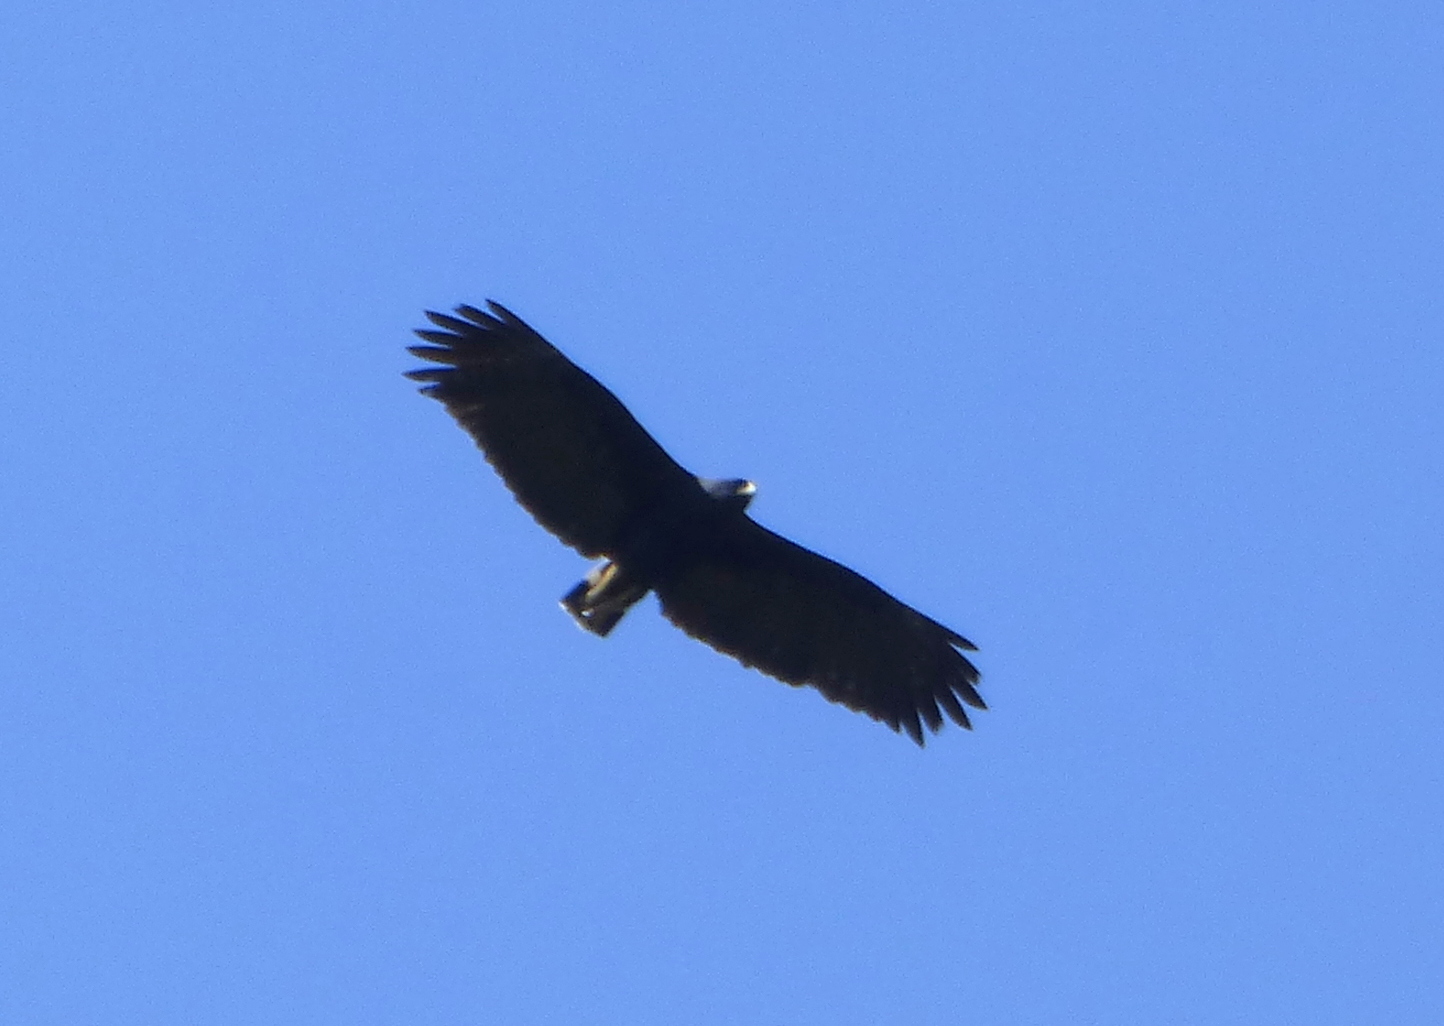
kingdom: Animalia
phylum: Chordata
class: Aves
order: Accipitriformes
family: Accipitridae
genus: Buteogallus
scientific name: Buteogallus urubitinga
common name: Great black hawk
